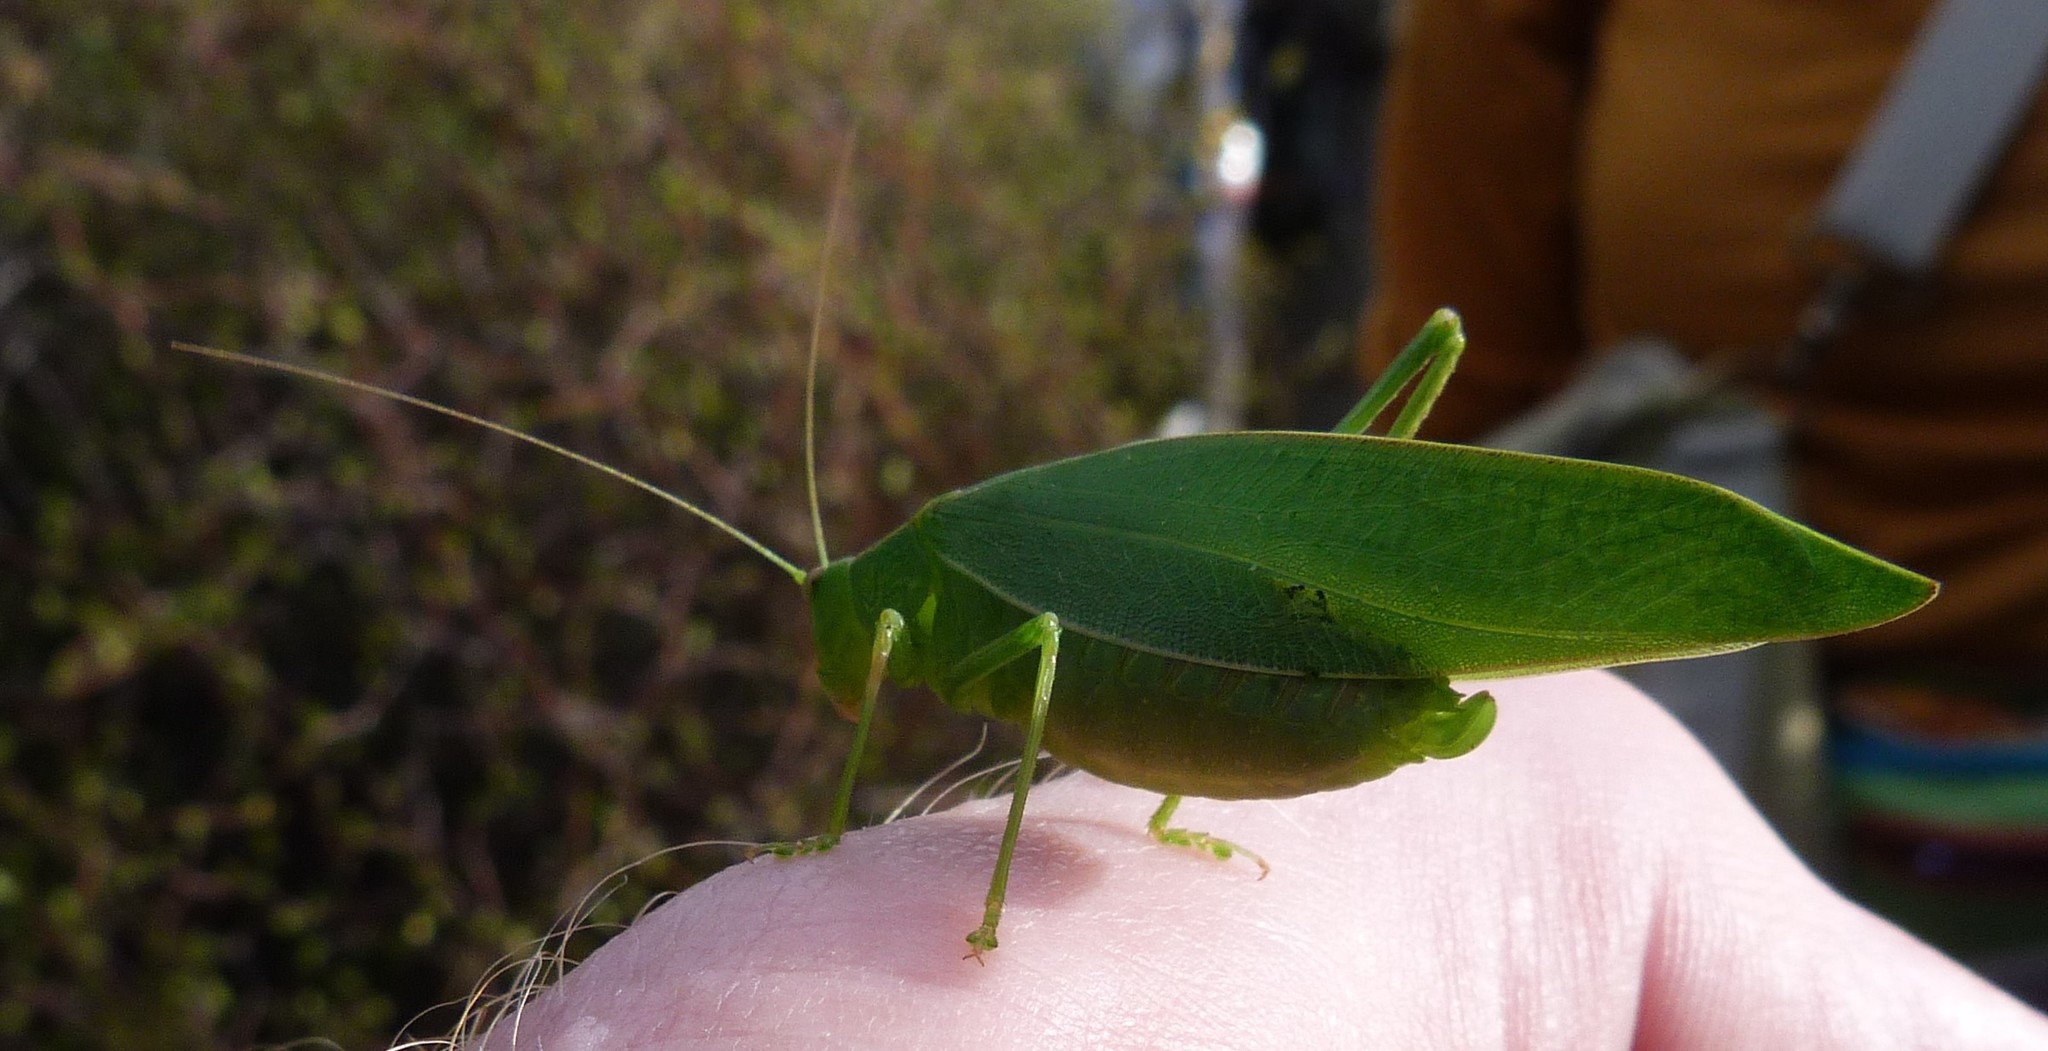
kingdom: Animalia
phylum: Arthropoda
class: Insecta
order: Orthoptera
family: Tettigoniidae
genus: Caedicia
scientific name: Caedicia simplex
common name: Common garden katydid
